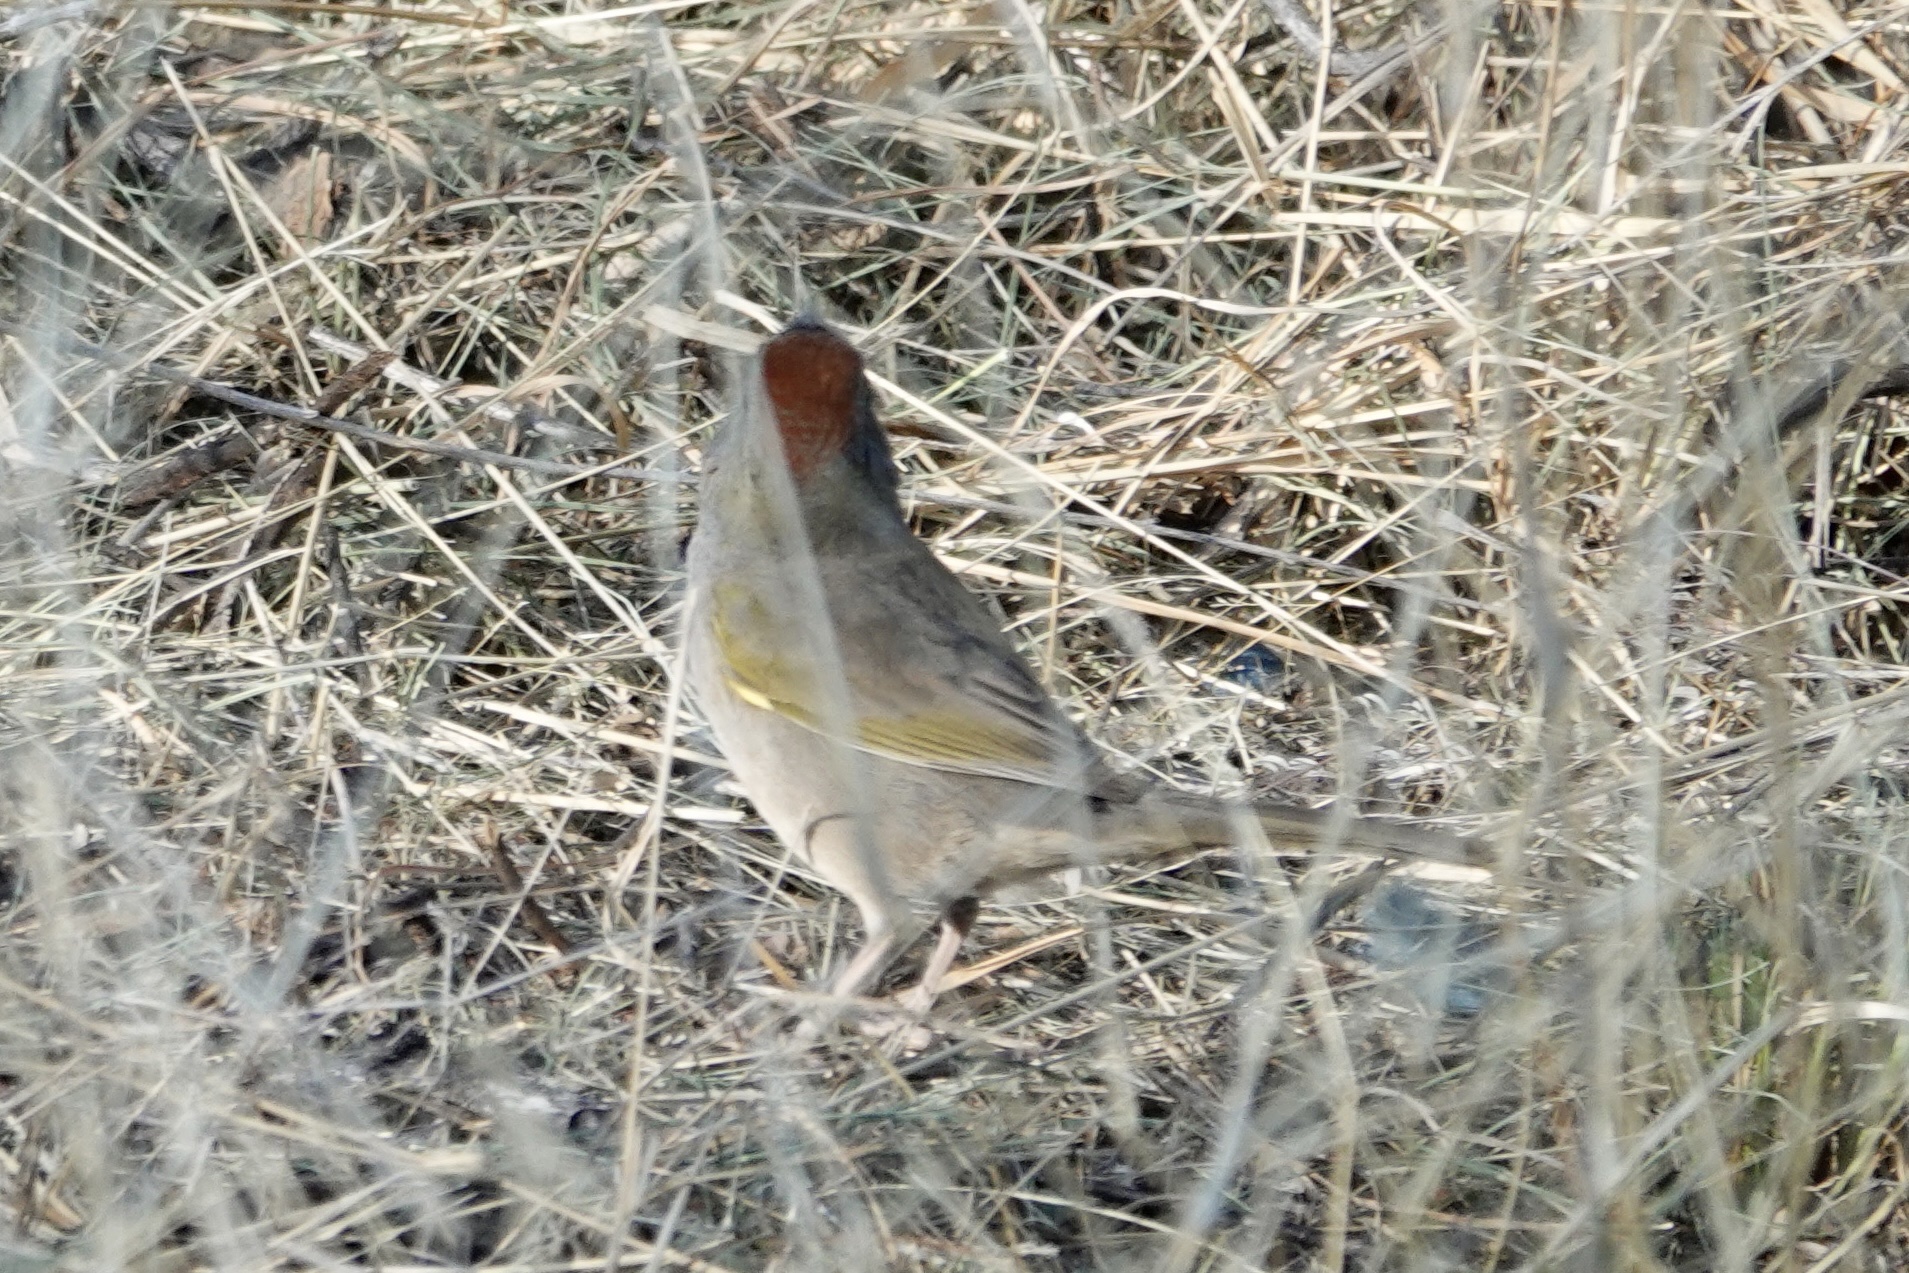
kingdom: Animalia
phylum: Chordata
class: Aves
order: Passeriformes
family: Passerellidae
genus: Pipilo
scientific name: Pipilo chlorurus
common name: Green-tailed towhee
